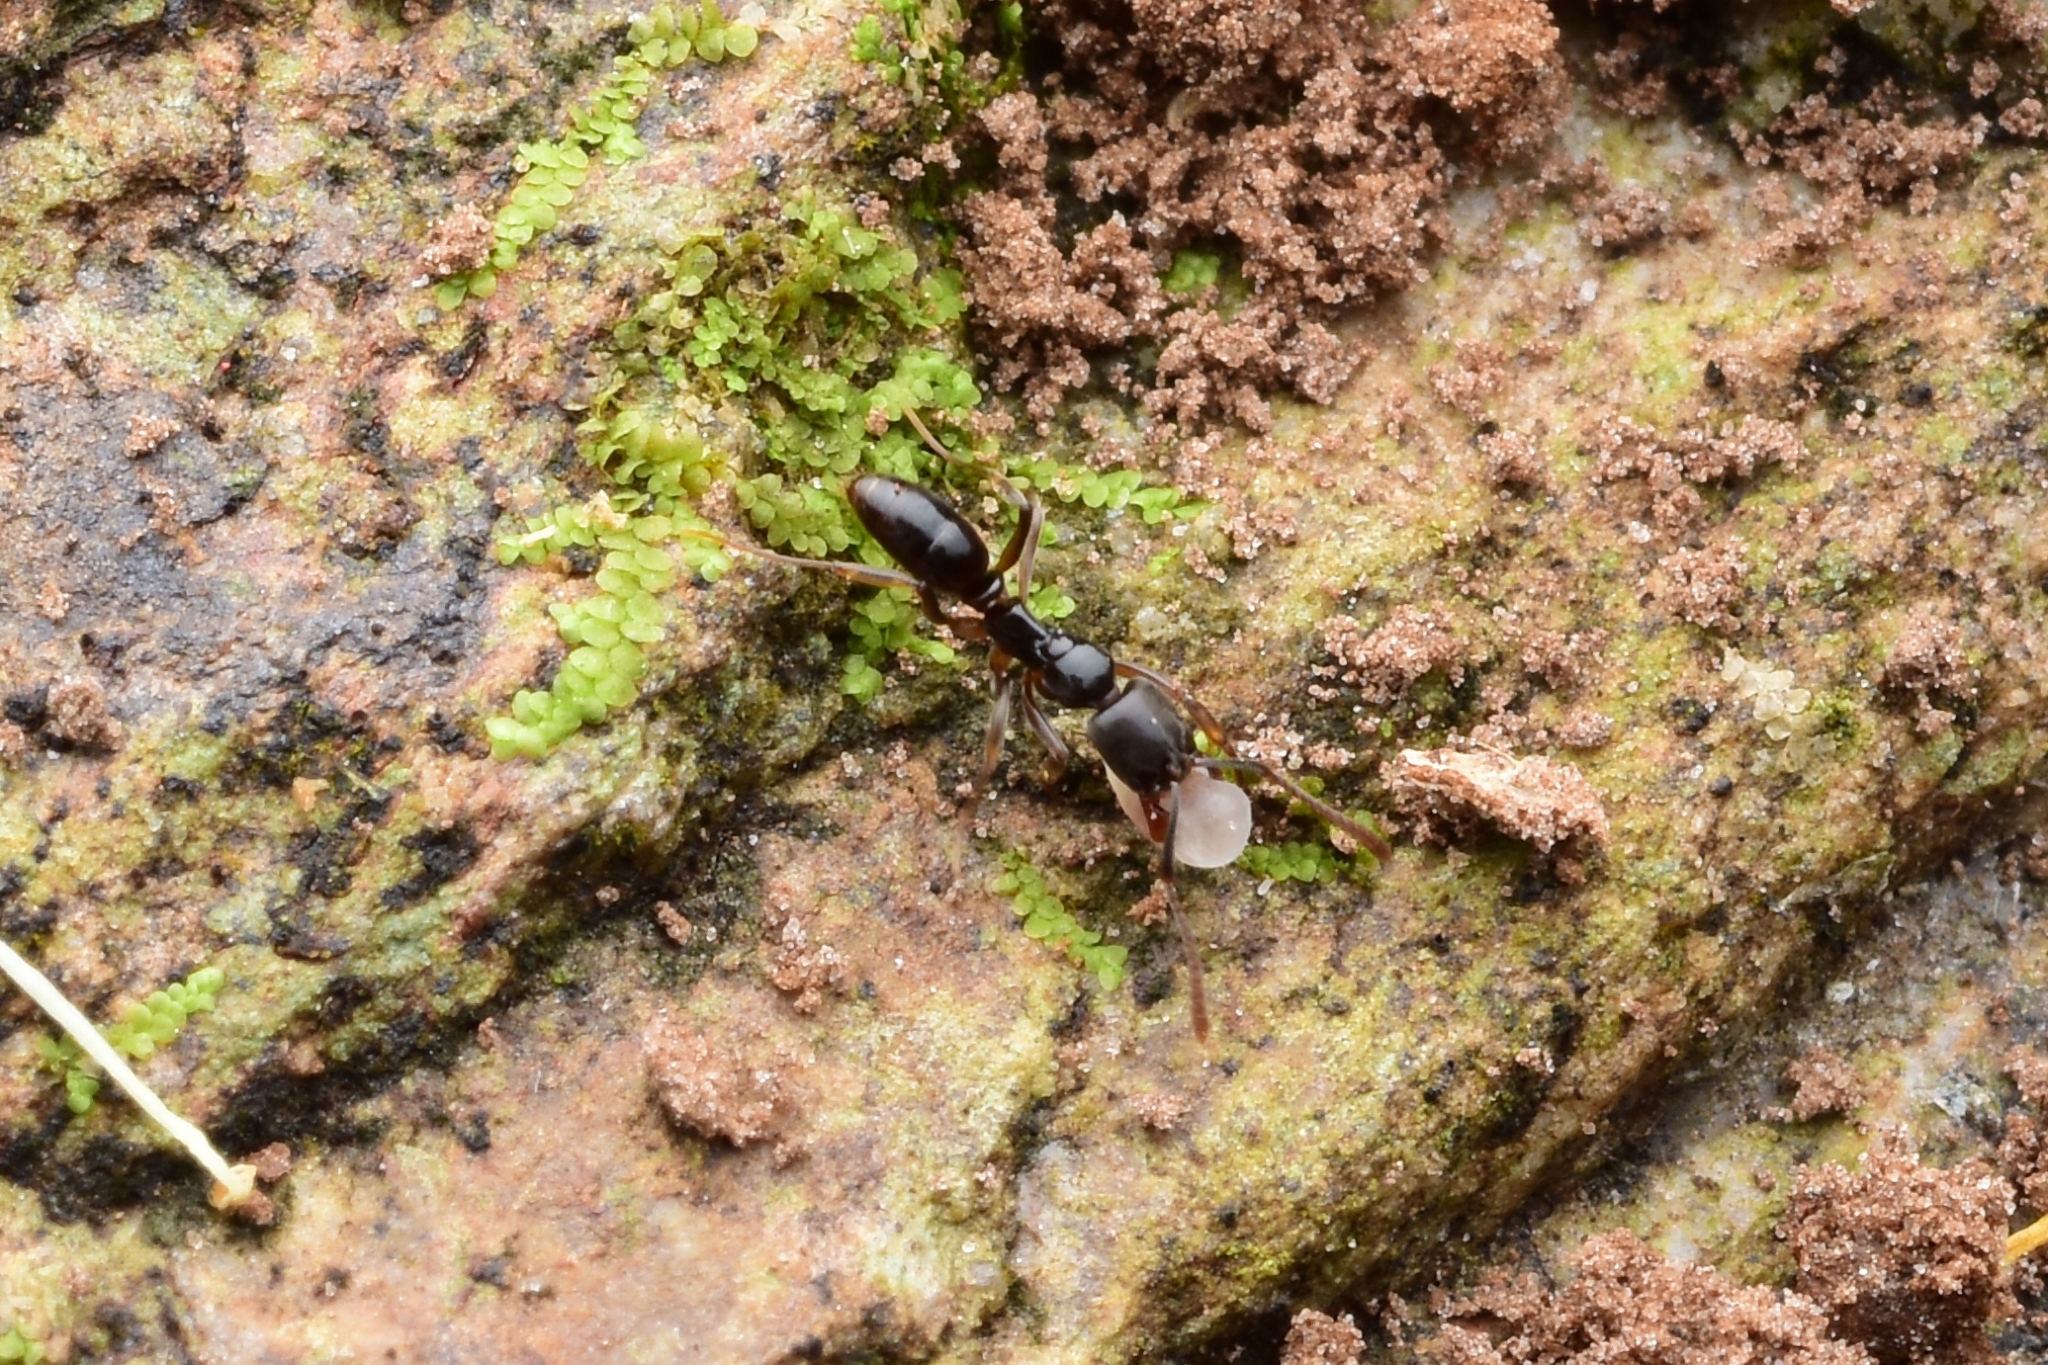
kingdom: Animalia
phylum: Arthropoda
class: Insecta
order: Hymenoptera
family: Formicidae
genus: Brachyponera
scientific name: Brachyponera
